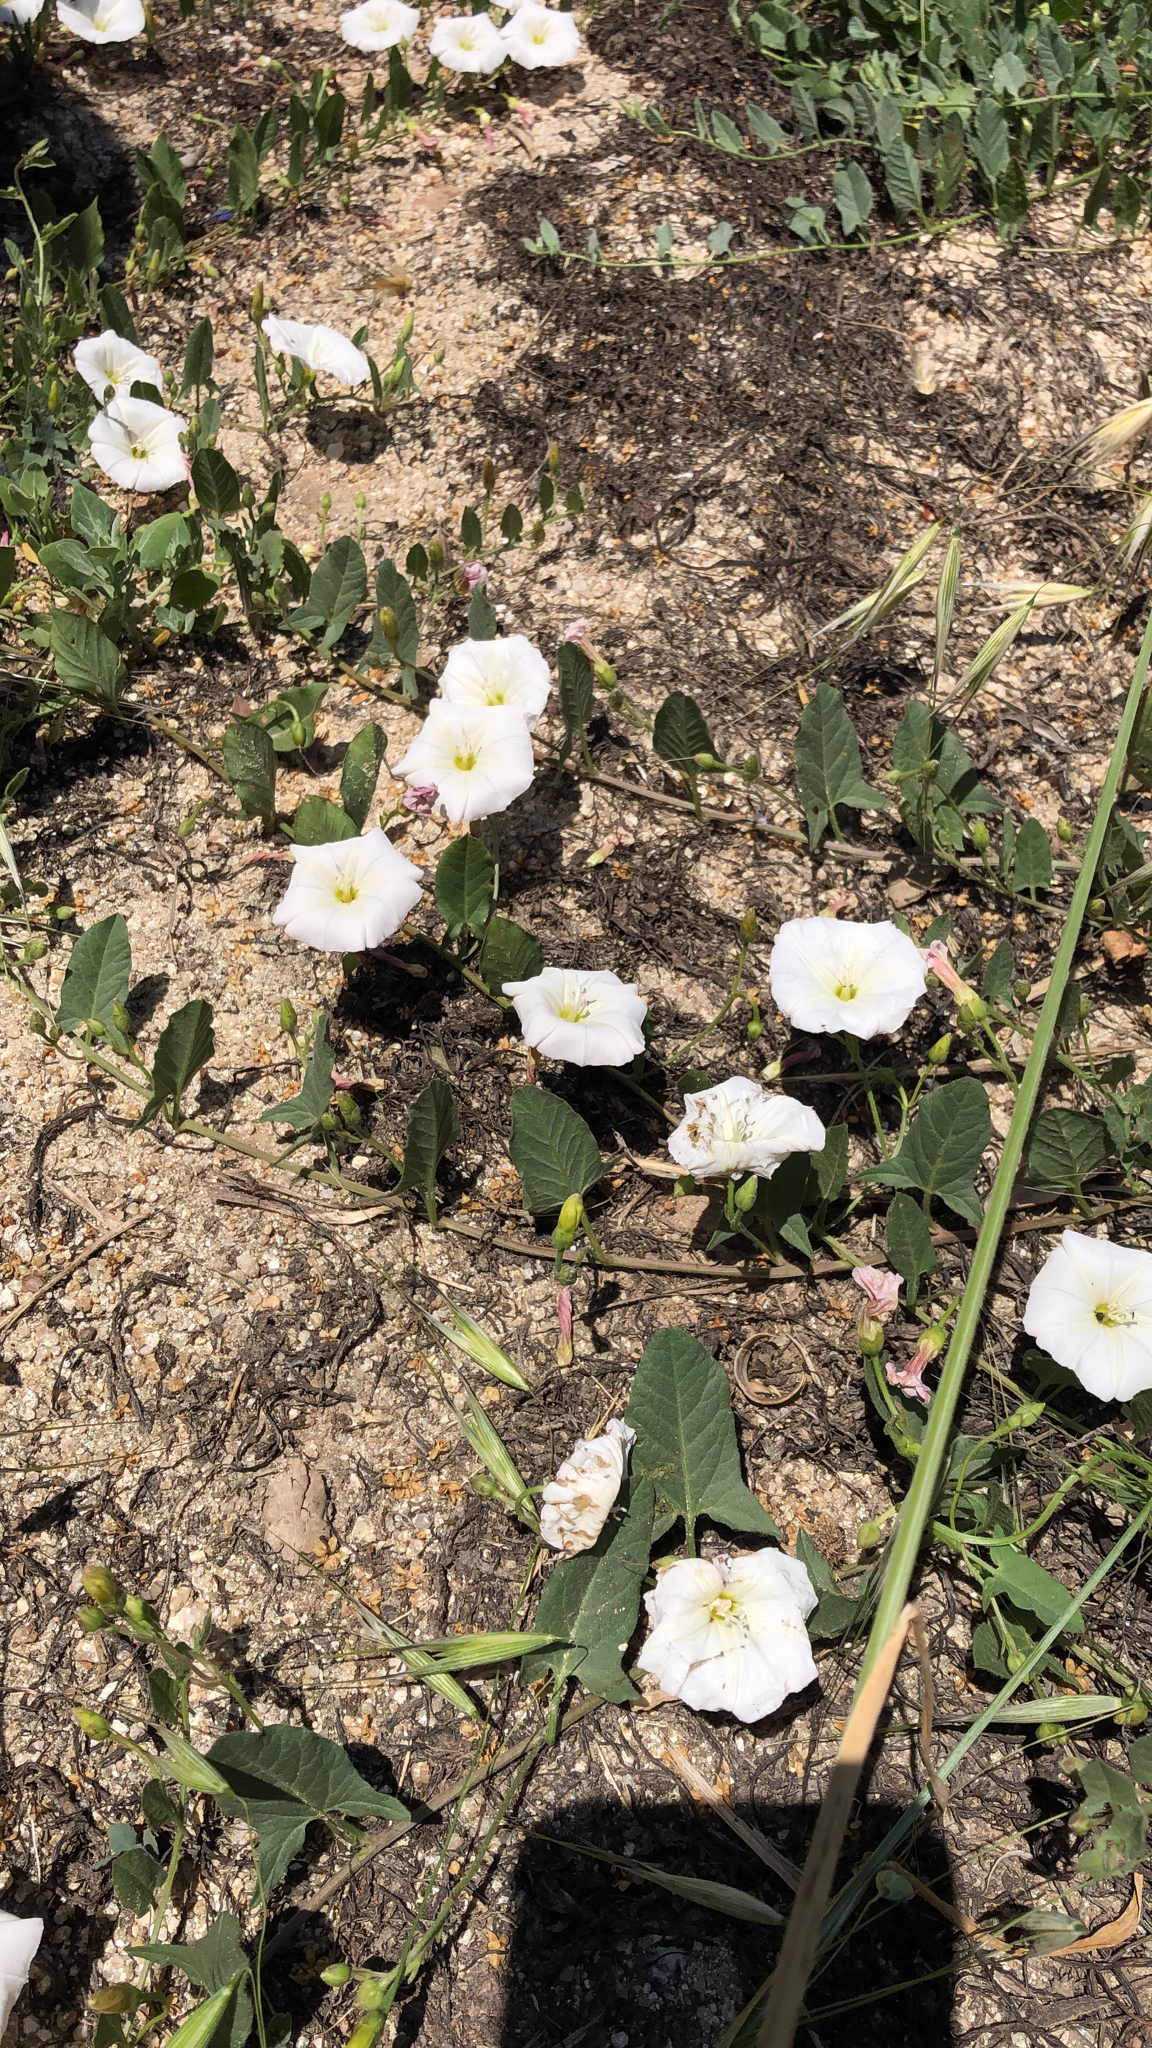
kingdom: Plantae
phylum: Tracheophyta
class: Magnoliopsida
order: Solanales
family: Convolvulaceae
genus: Convolvulus
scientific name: Convolvulus arvensis
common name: Field bindweed
